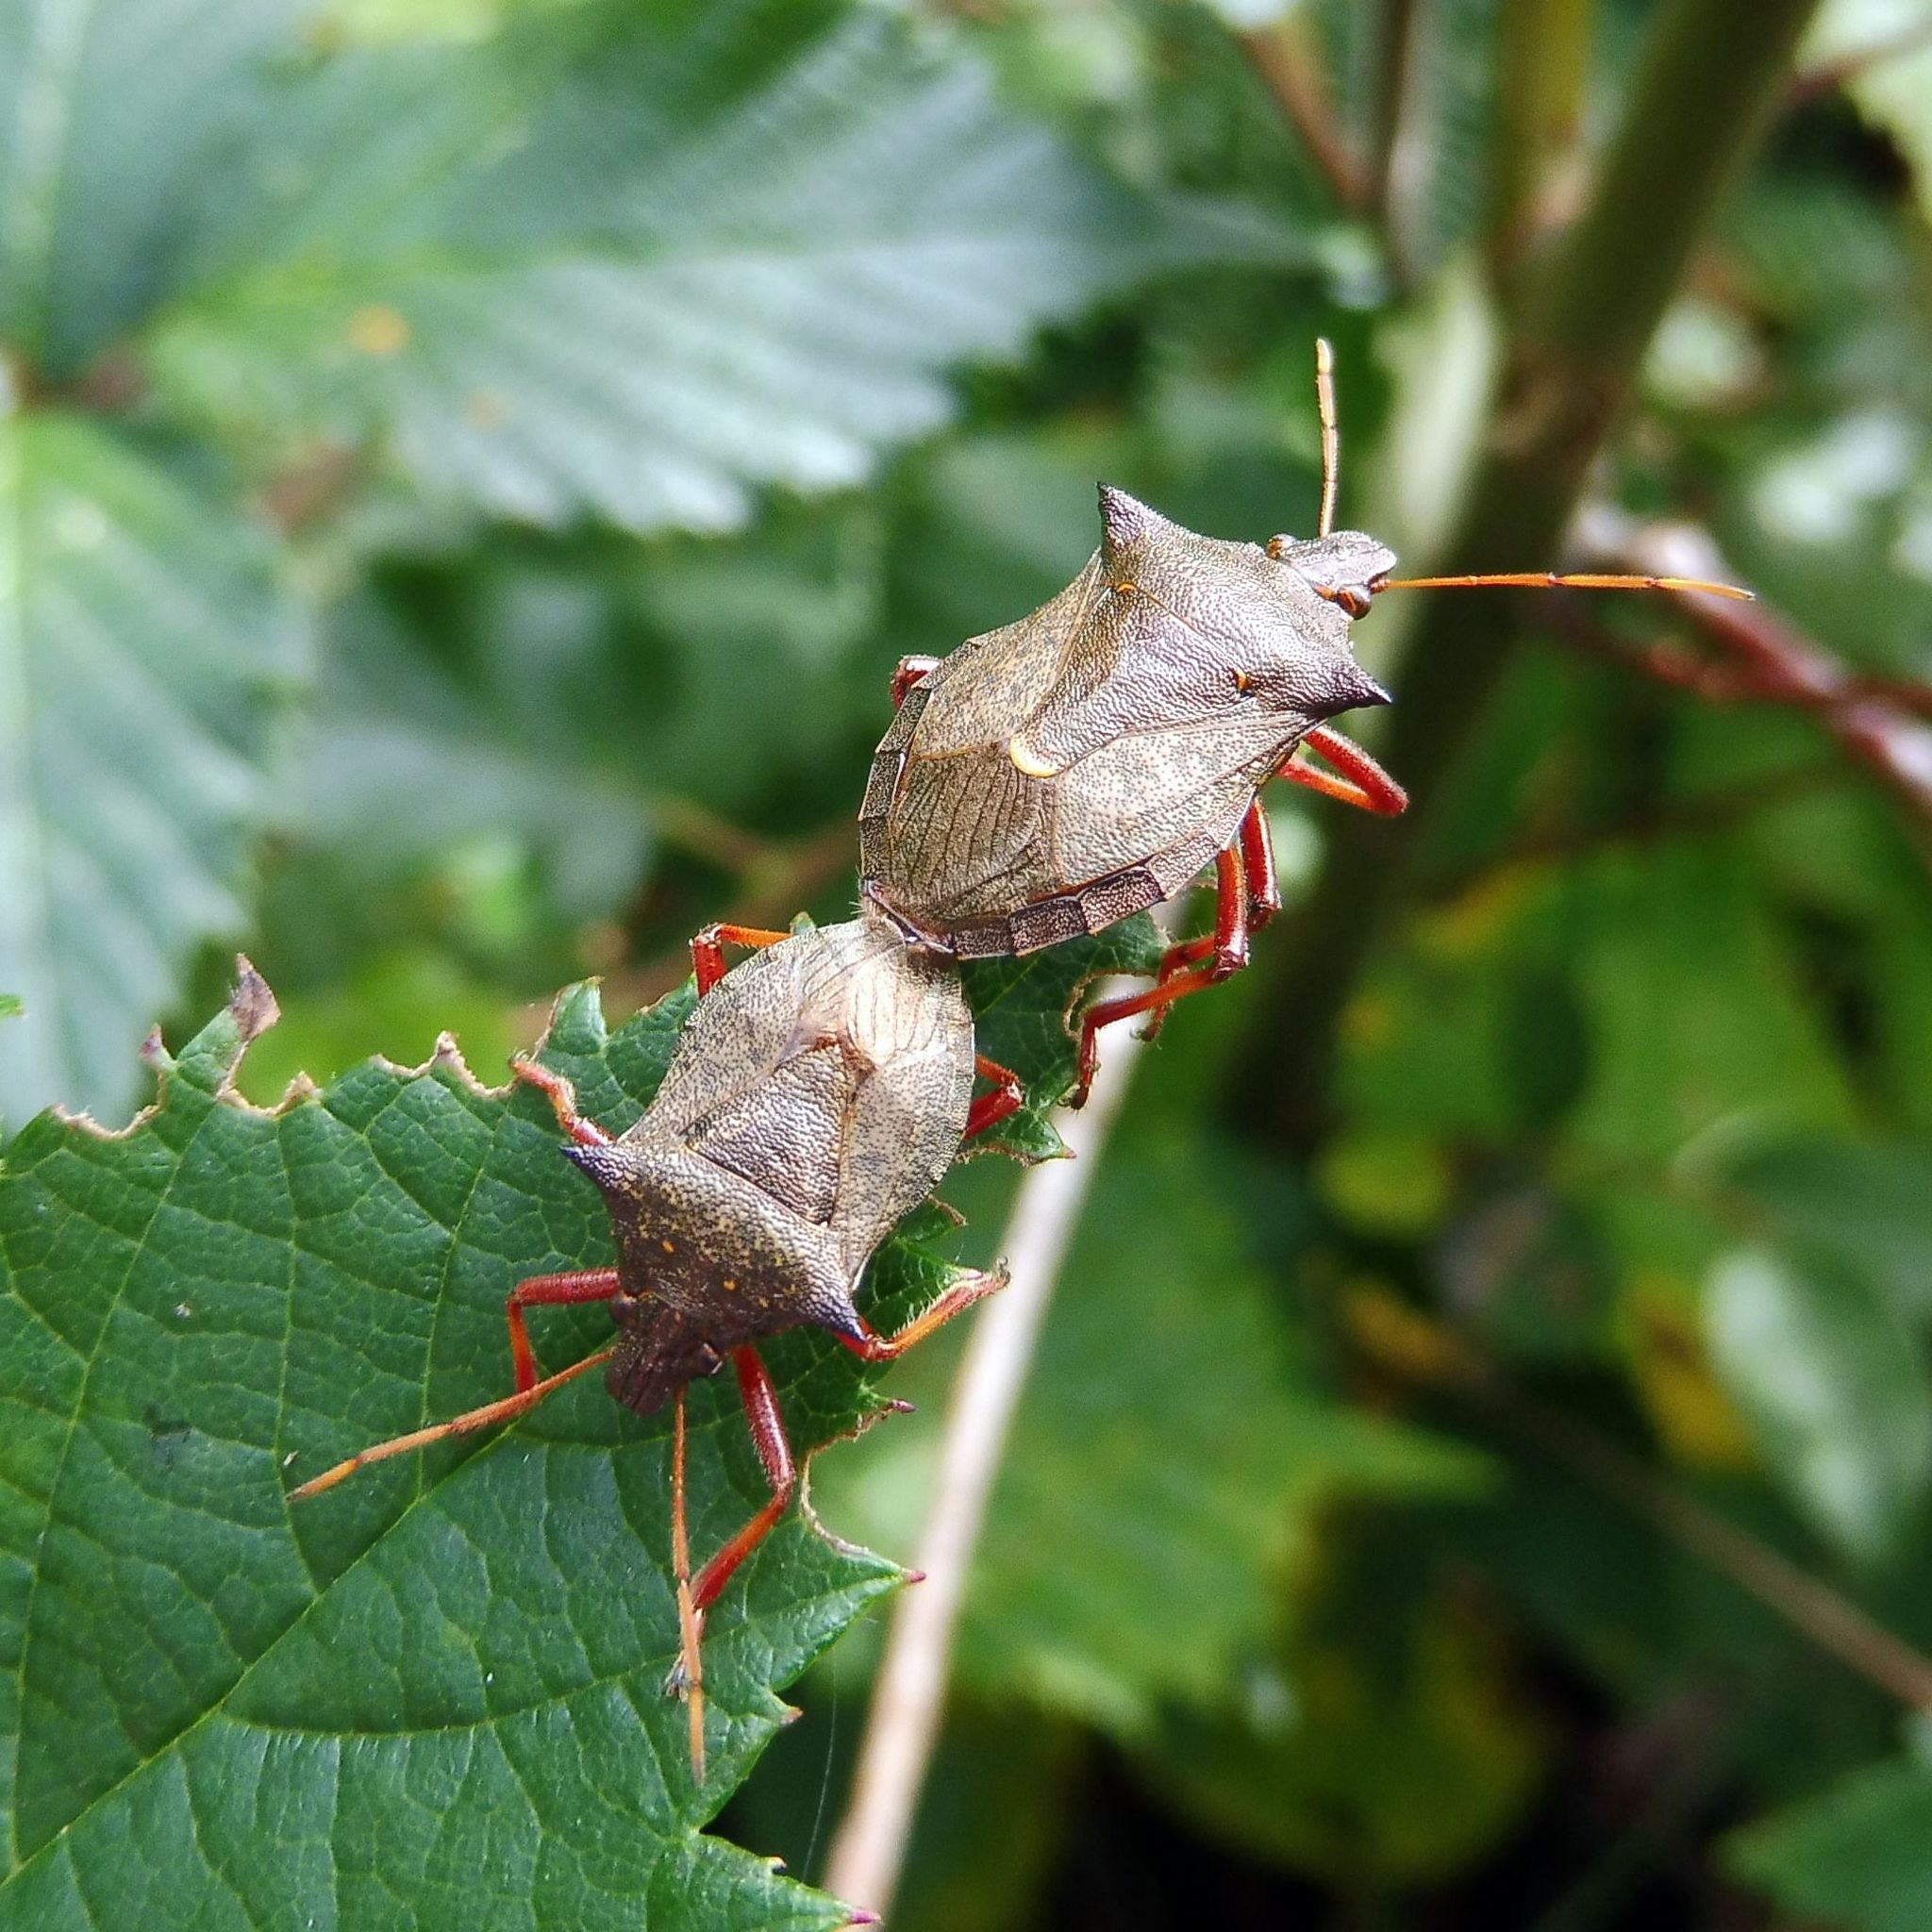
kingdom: Animalia
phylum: Arthropoda
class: Insecta
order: Hemiptera
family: Pentatomidae
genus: Picromerus
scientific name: Picromerus bidens
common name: Spiked shieldbug
